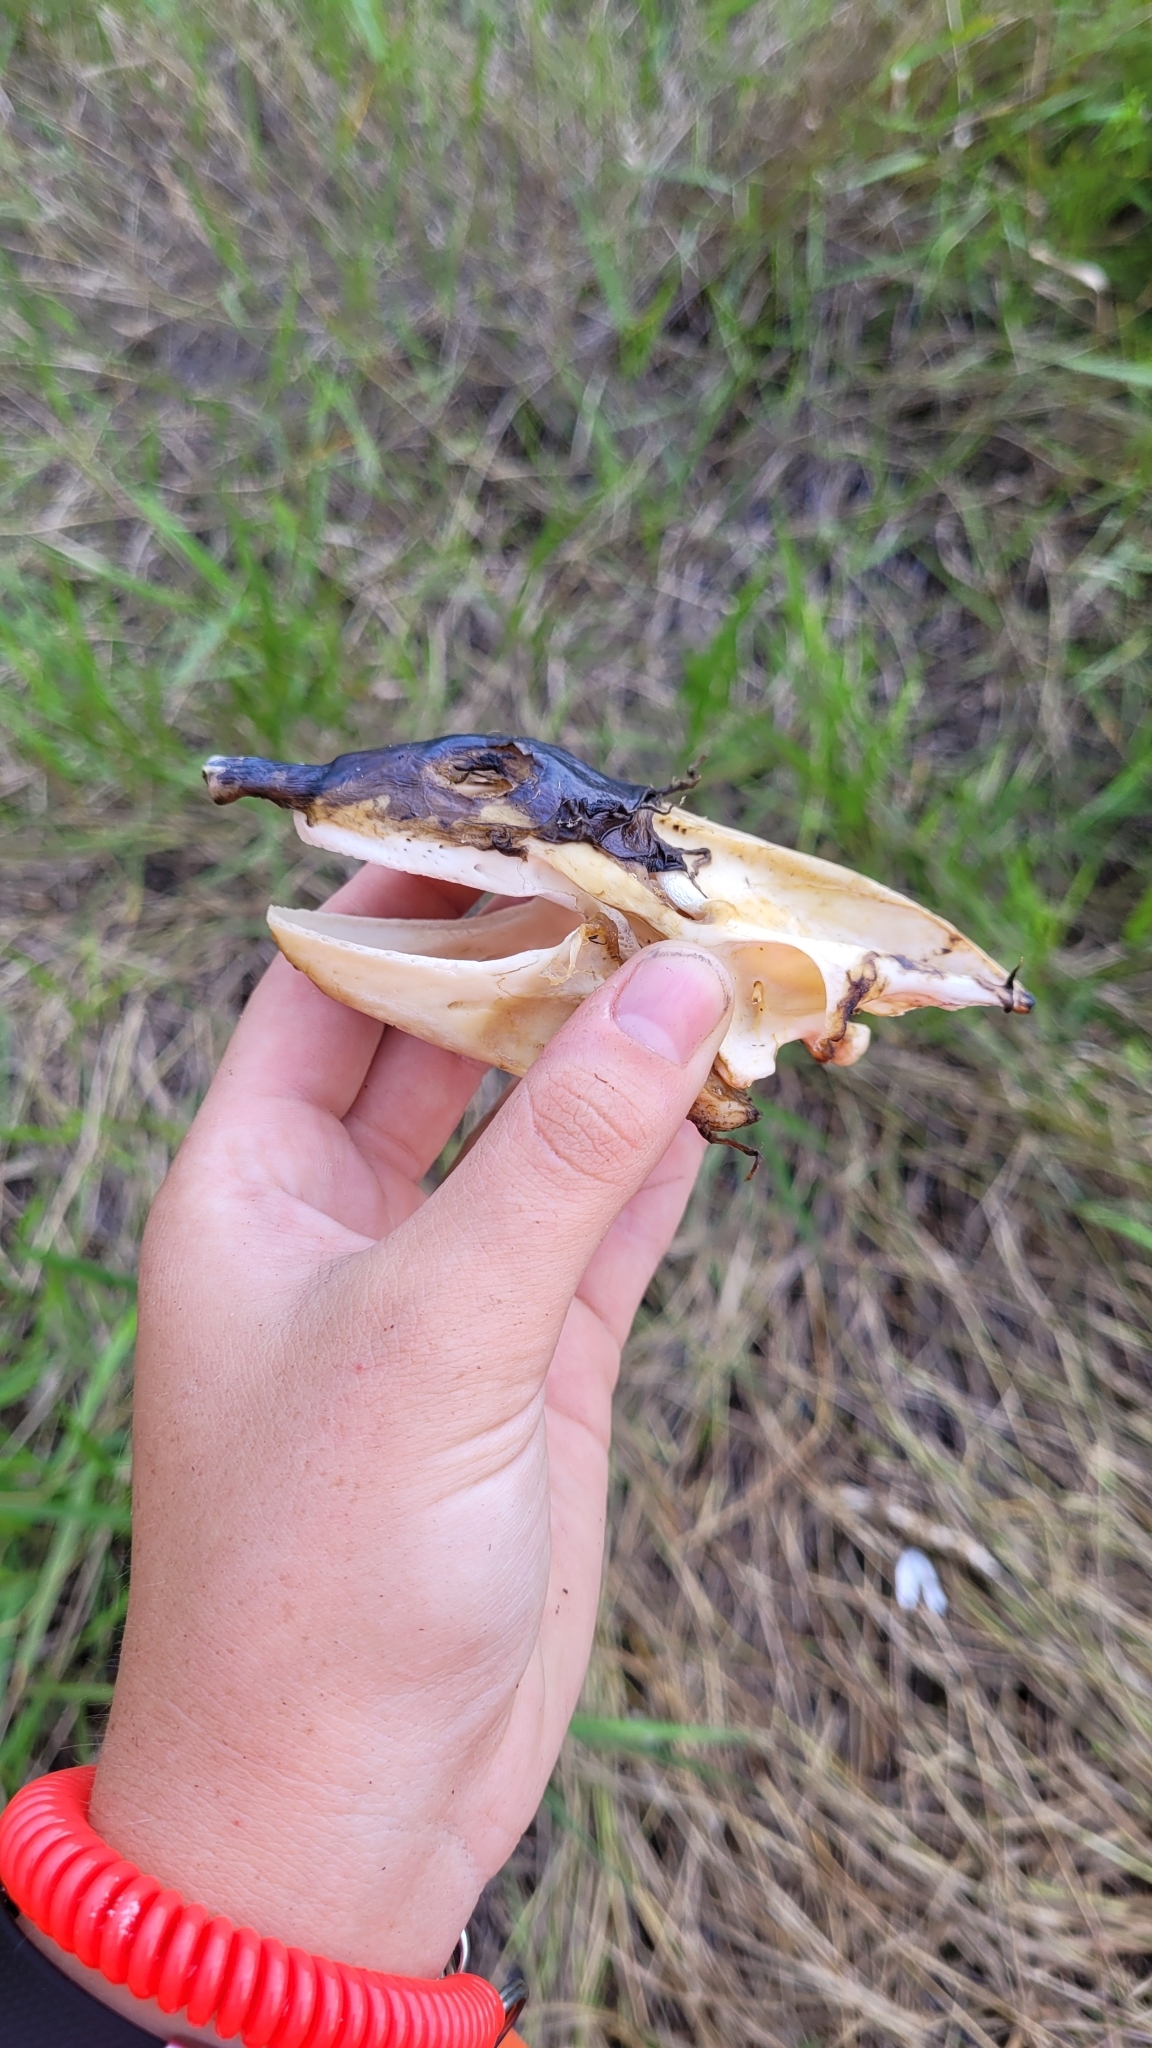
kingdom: Animalia
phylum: Chordata
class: Testudines
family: Trionychidae
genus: Apalone
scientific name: Apalone ferox
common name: Florida softshell turtle
